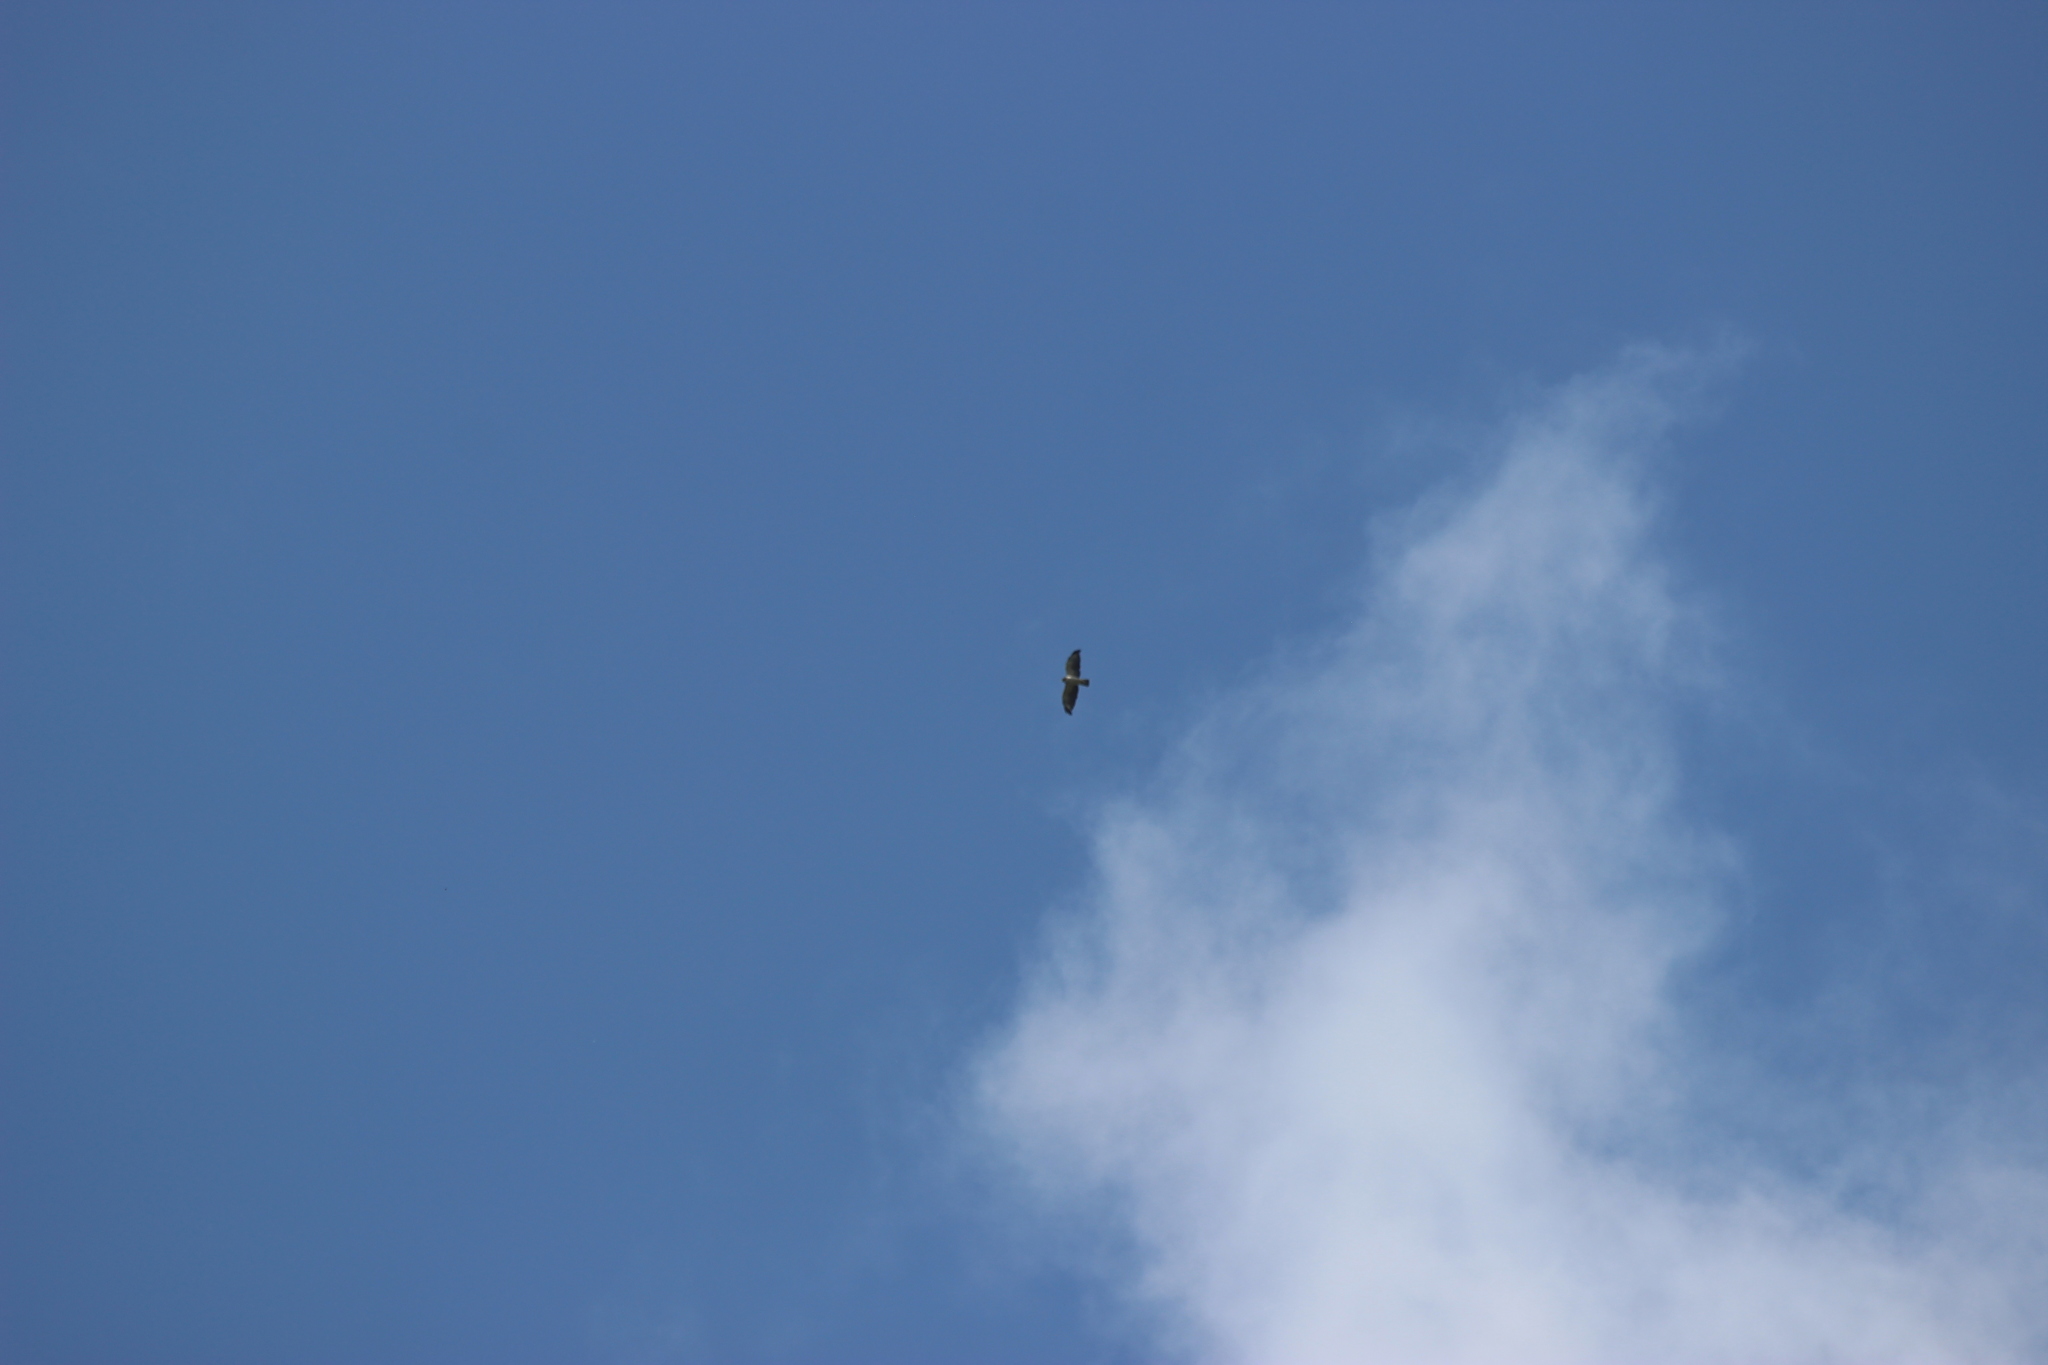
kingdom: Animalia
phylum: Chordata
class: Aves
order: Accipitriformes
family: Accipitridae
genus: Buteo
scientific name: Buteo brachyurus
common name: Short-tailed hawk
